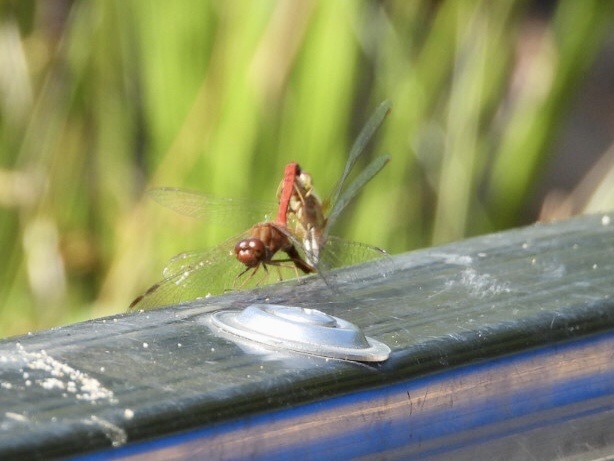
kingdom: Animalia
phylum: Arthropoda
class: Insecta
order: Odonata
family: Libellulidae
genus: Sympetrum
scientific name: Sympetrum vicinum
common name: Autumn meadowhawk
